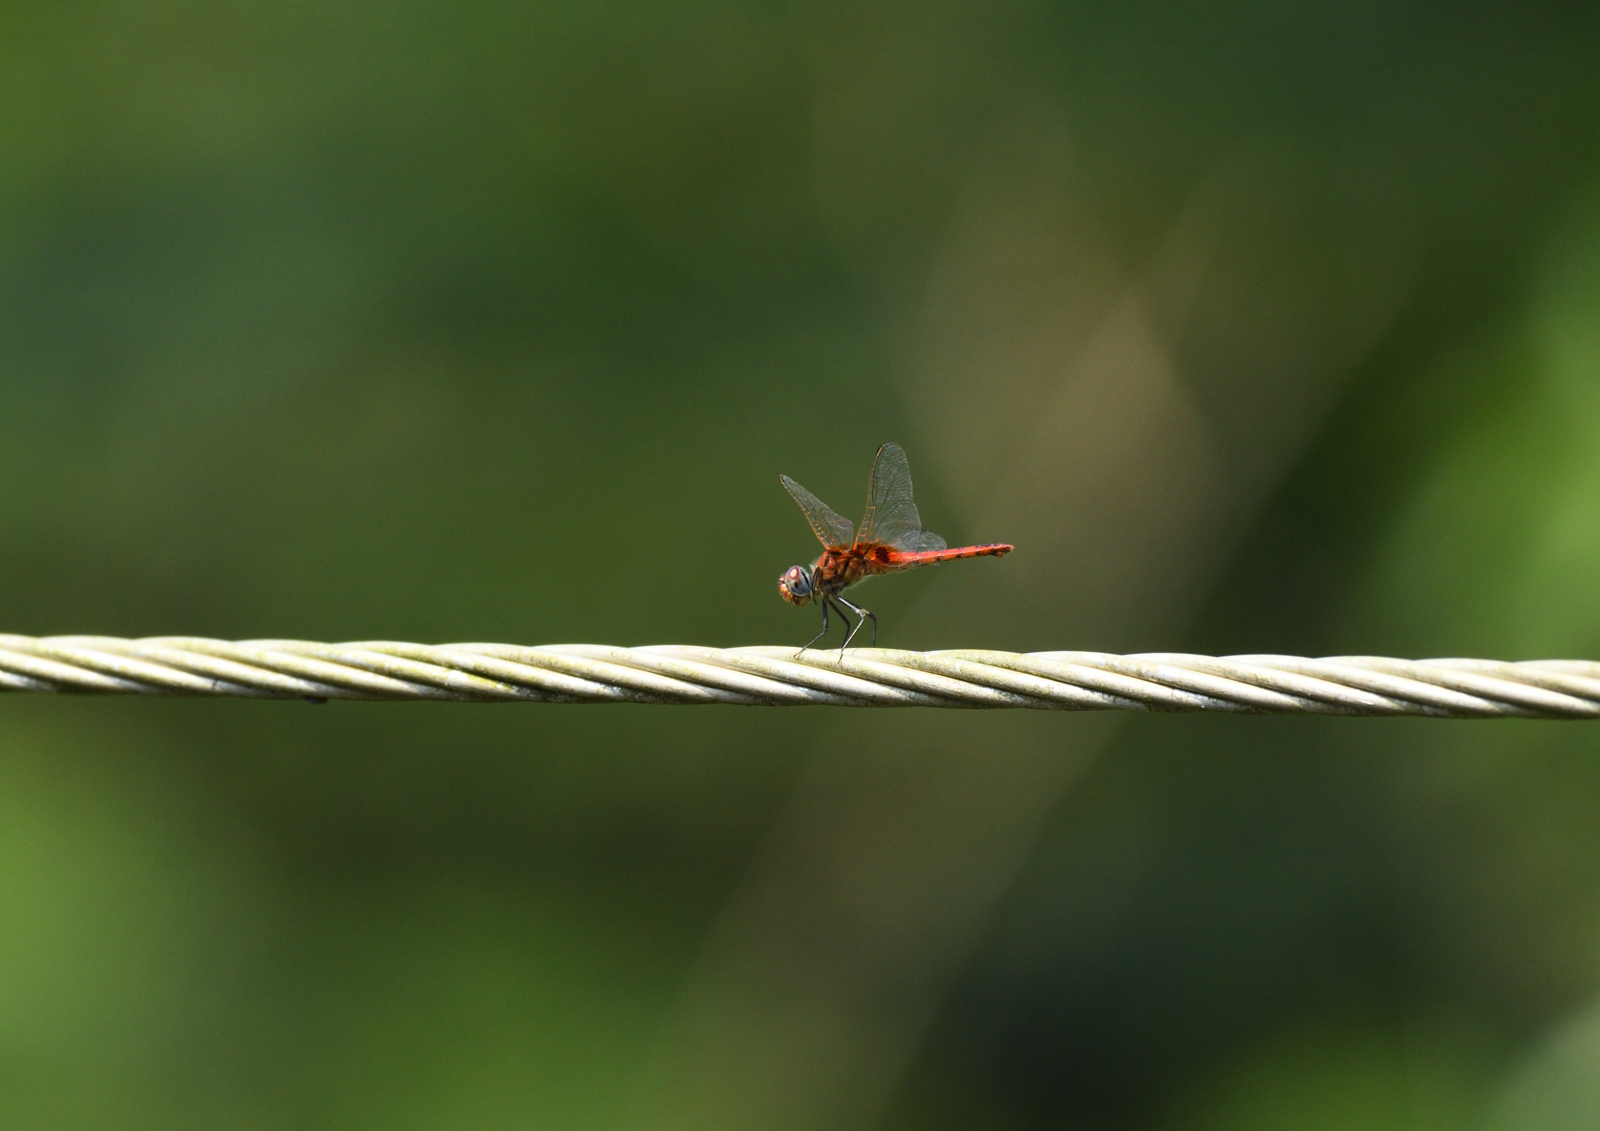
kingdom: Animalia
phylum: Arthropoda
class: Insecta
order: Odonata
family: Libellulidae
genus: Urothemis
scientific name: Urothemis signata
